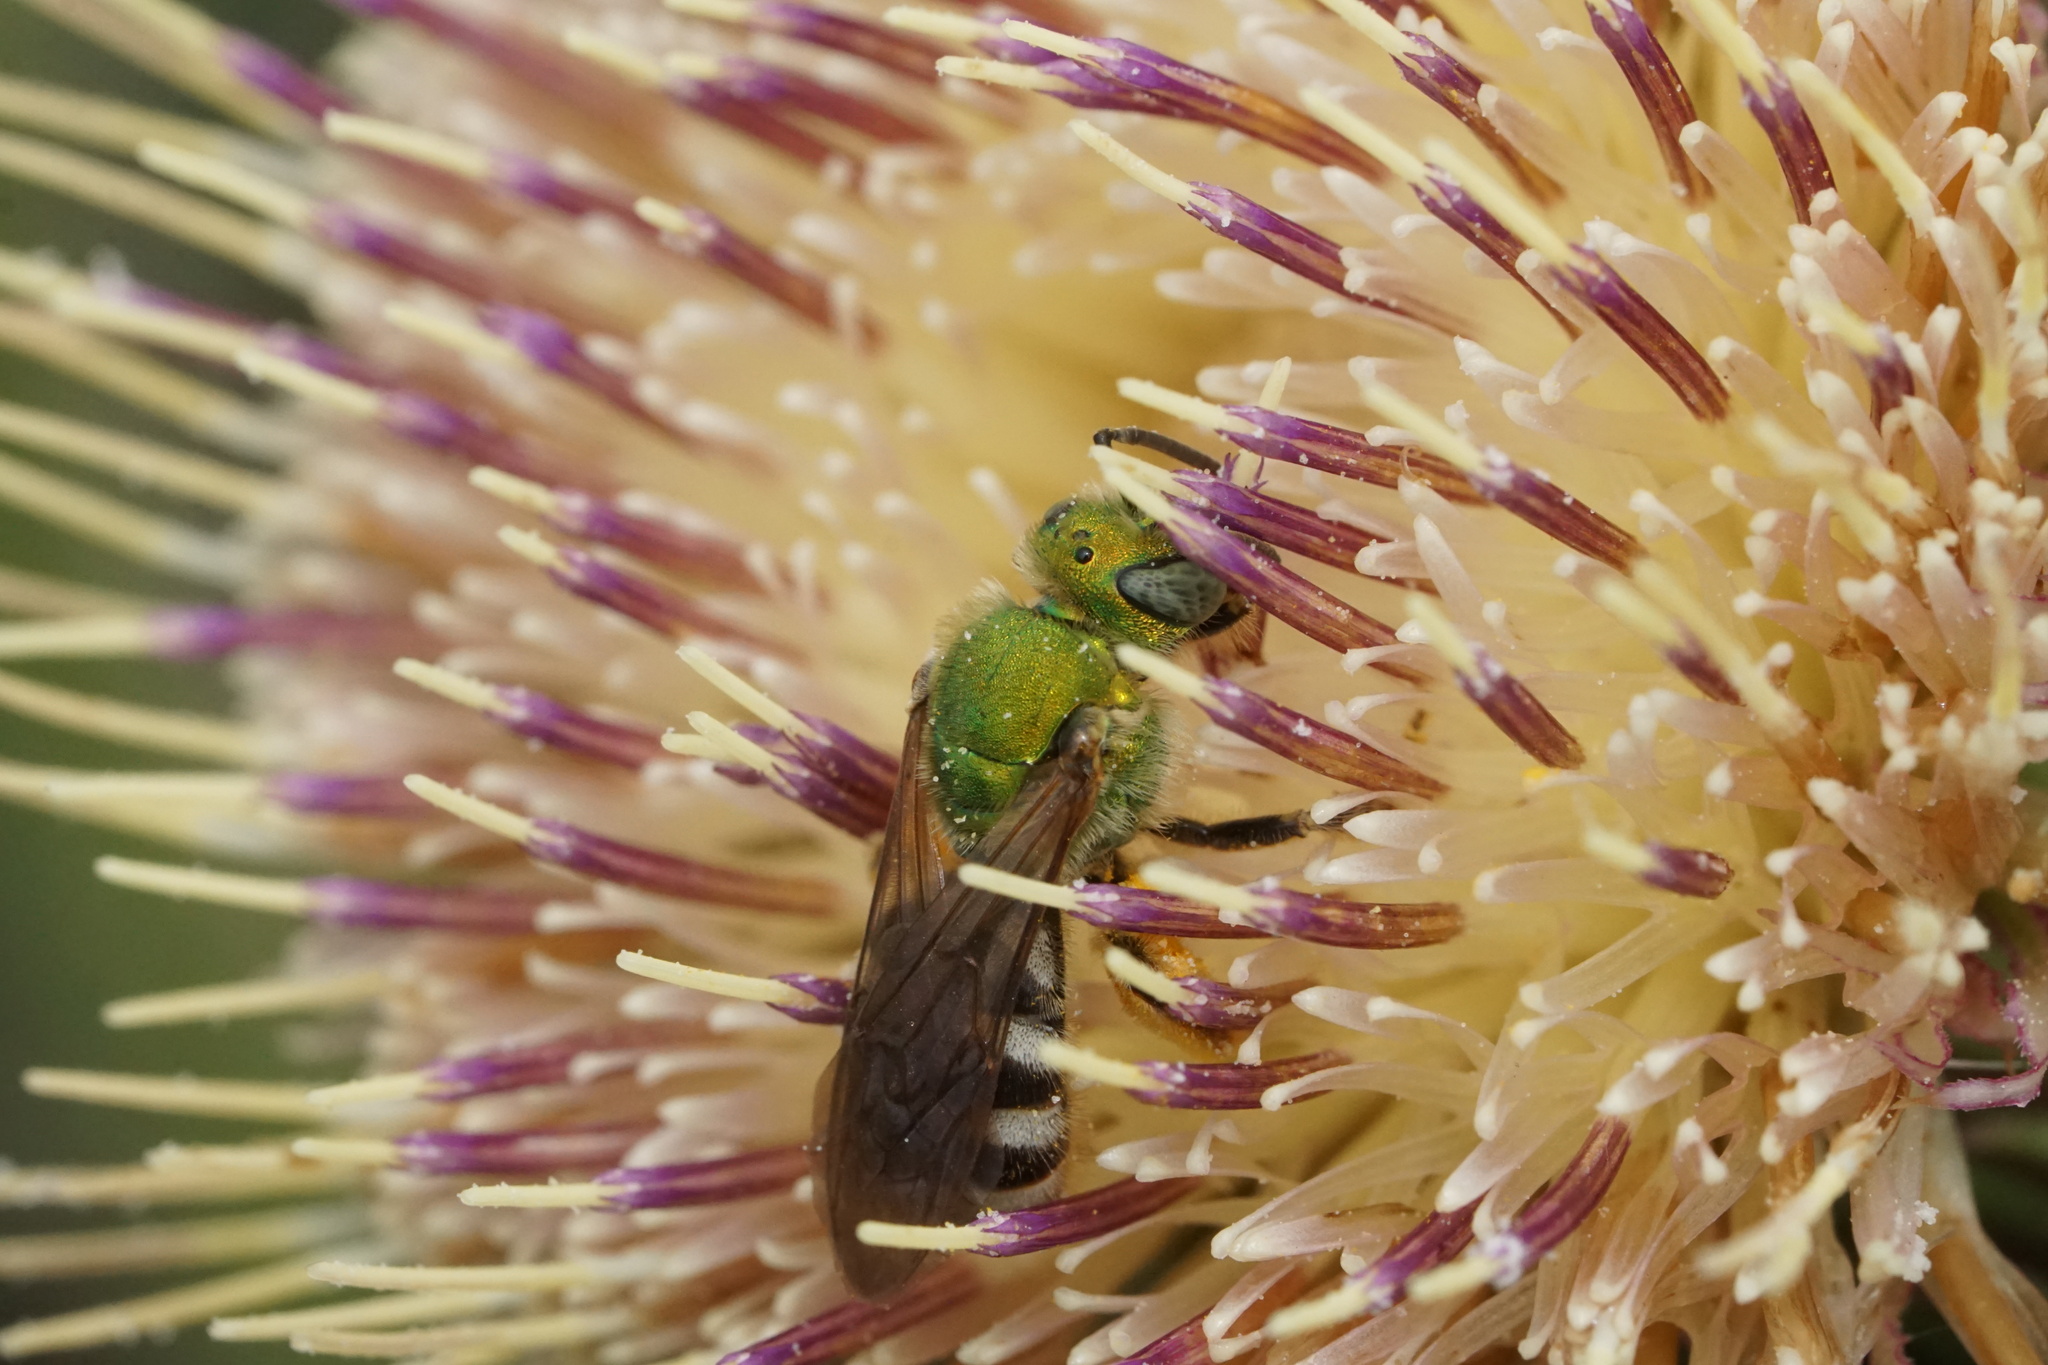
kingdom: Animalia
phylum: Arthropoda
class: Insecta
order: Hymenoptera
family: Halictidae
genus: Agapostemon
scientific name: Agapostemon virescens
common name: Bicolored striped sweat bee
